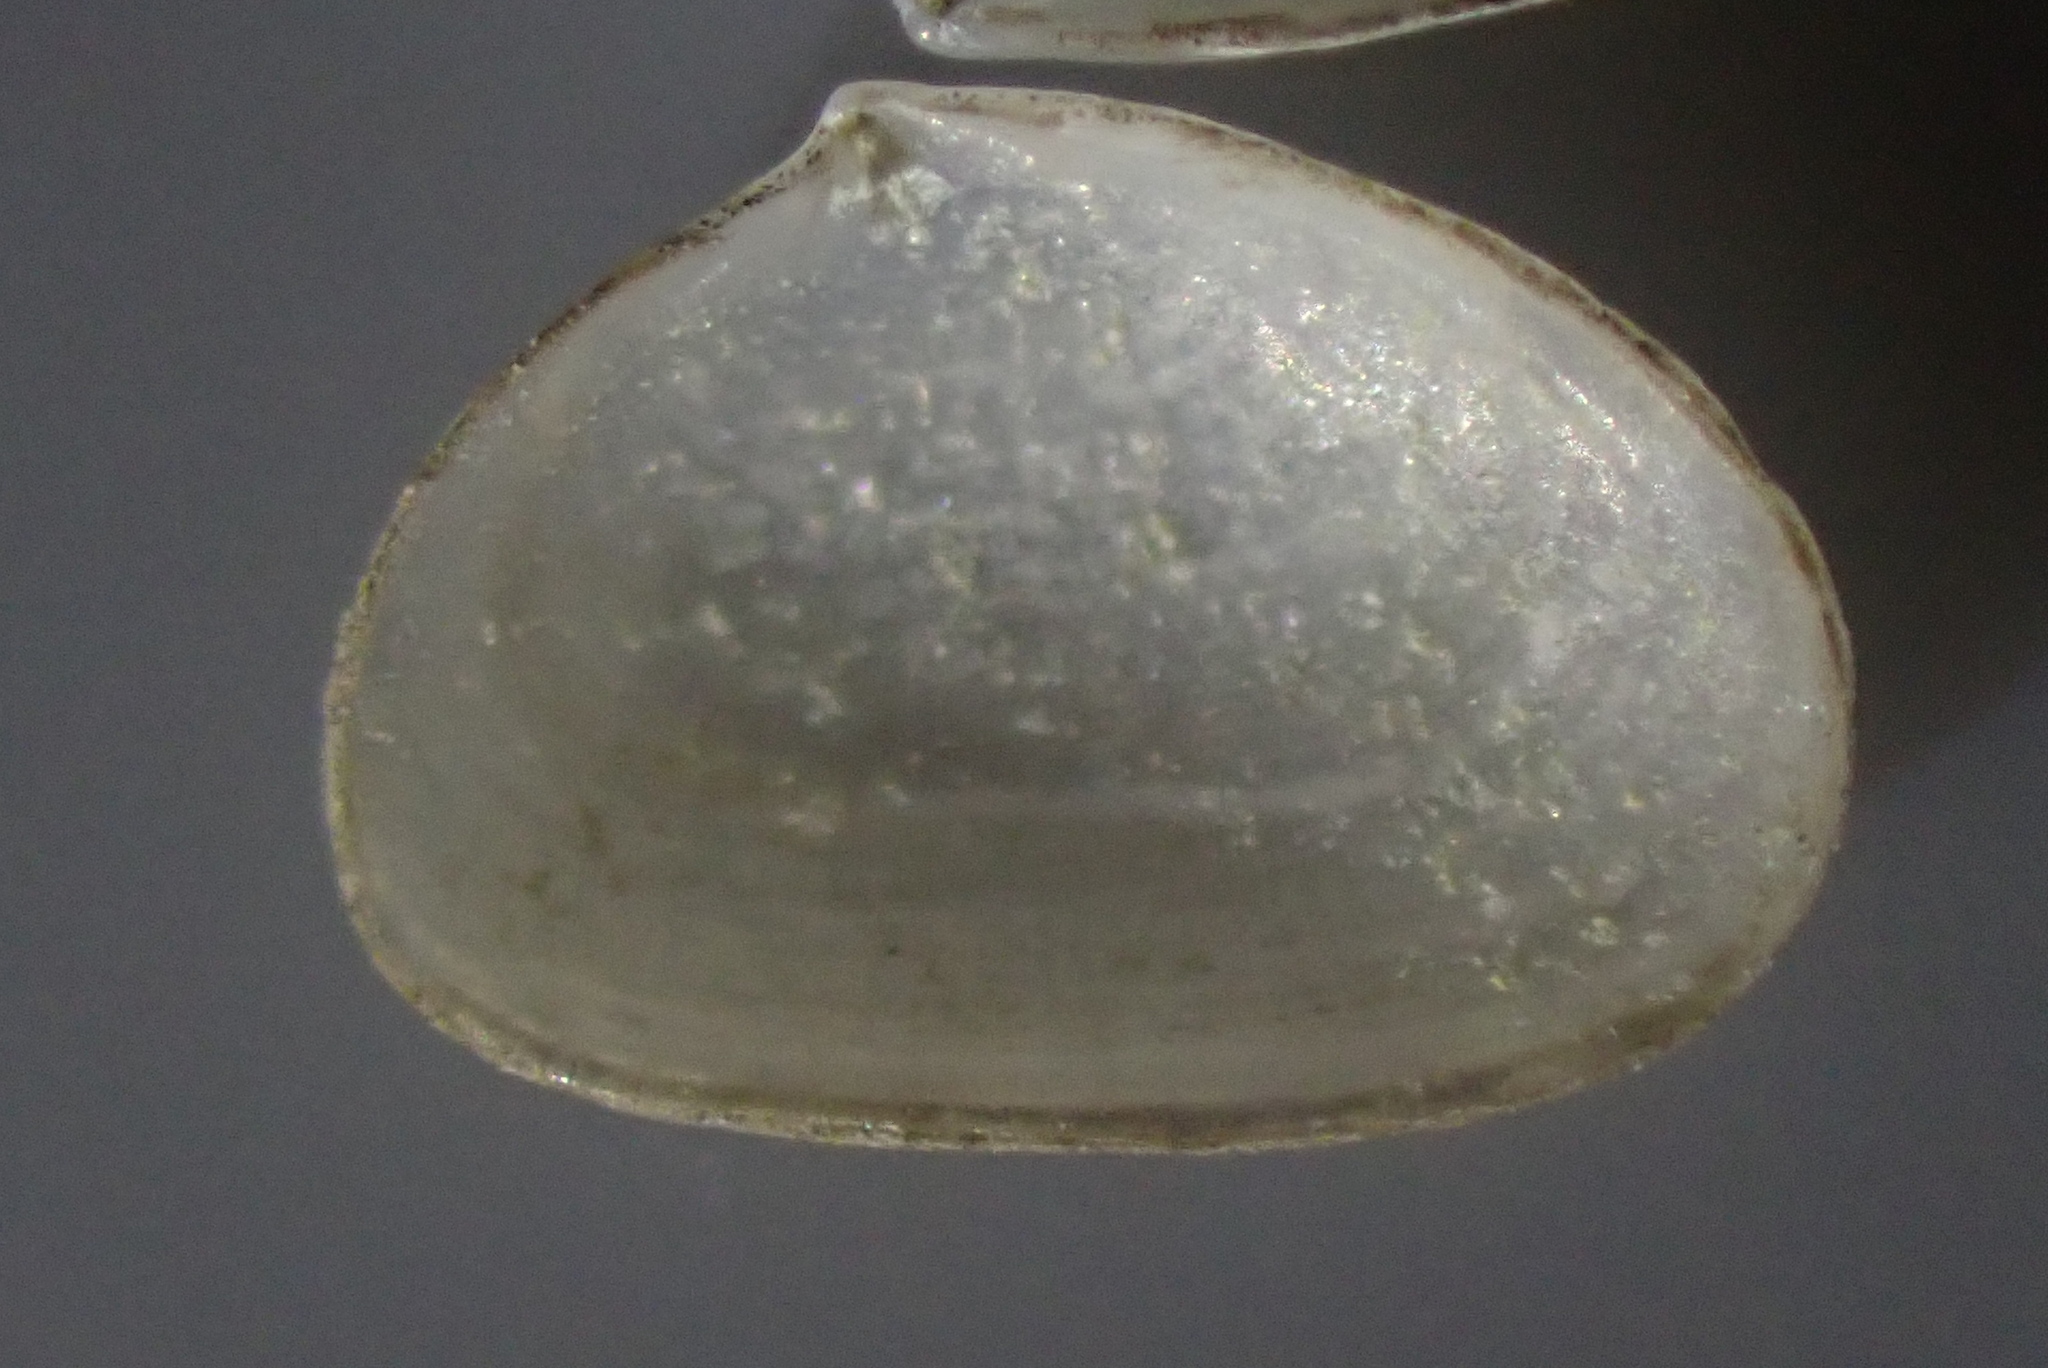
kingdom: Animalia
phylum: Mollusca
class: Bivalvia
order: Galeommatida
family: Lasaeidae
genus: Borniola
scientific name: Borniola reniformis
